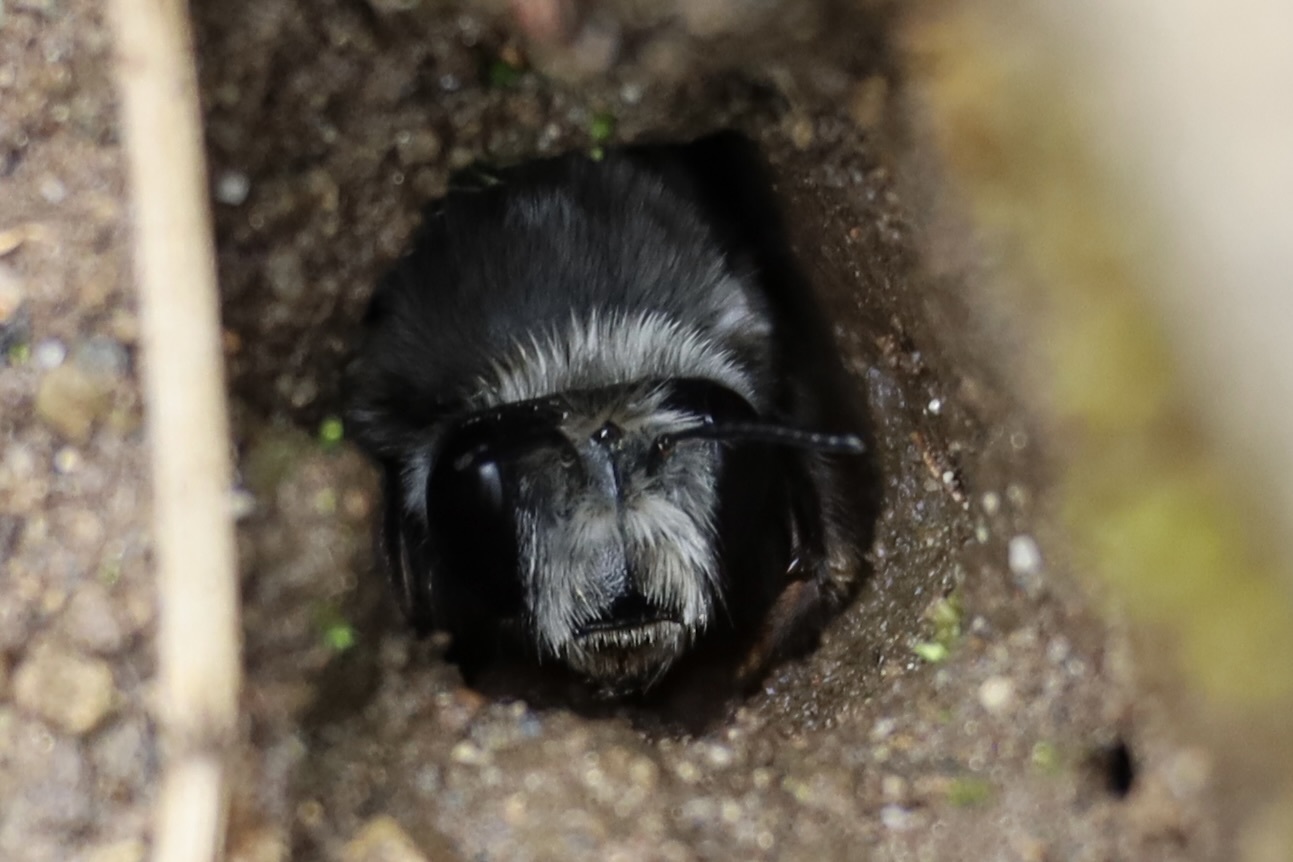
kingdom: Animalia
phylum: Arthropoda
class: Insecta
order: Hymenoptera
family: Apidae
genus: Anthophora
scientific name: Anthophora pacifica
